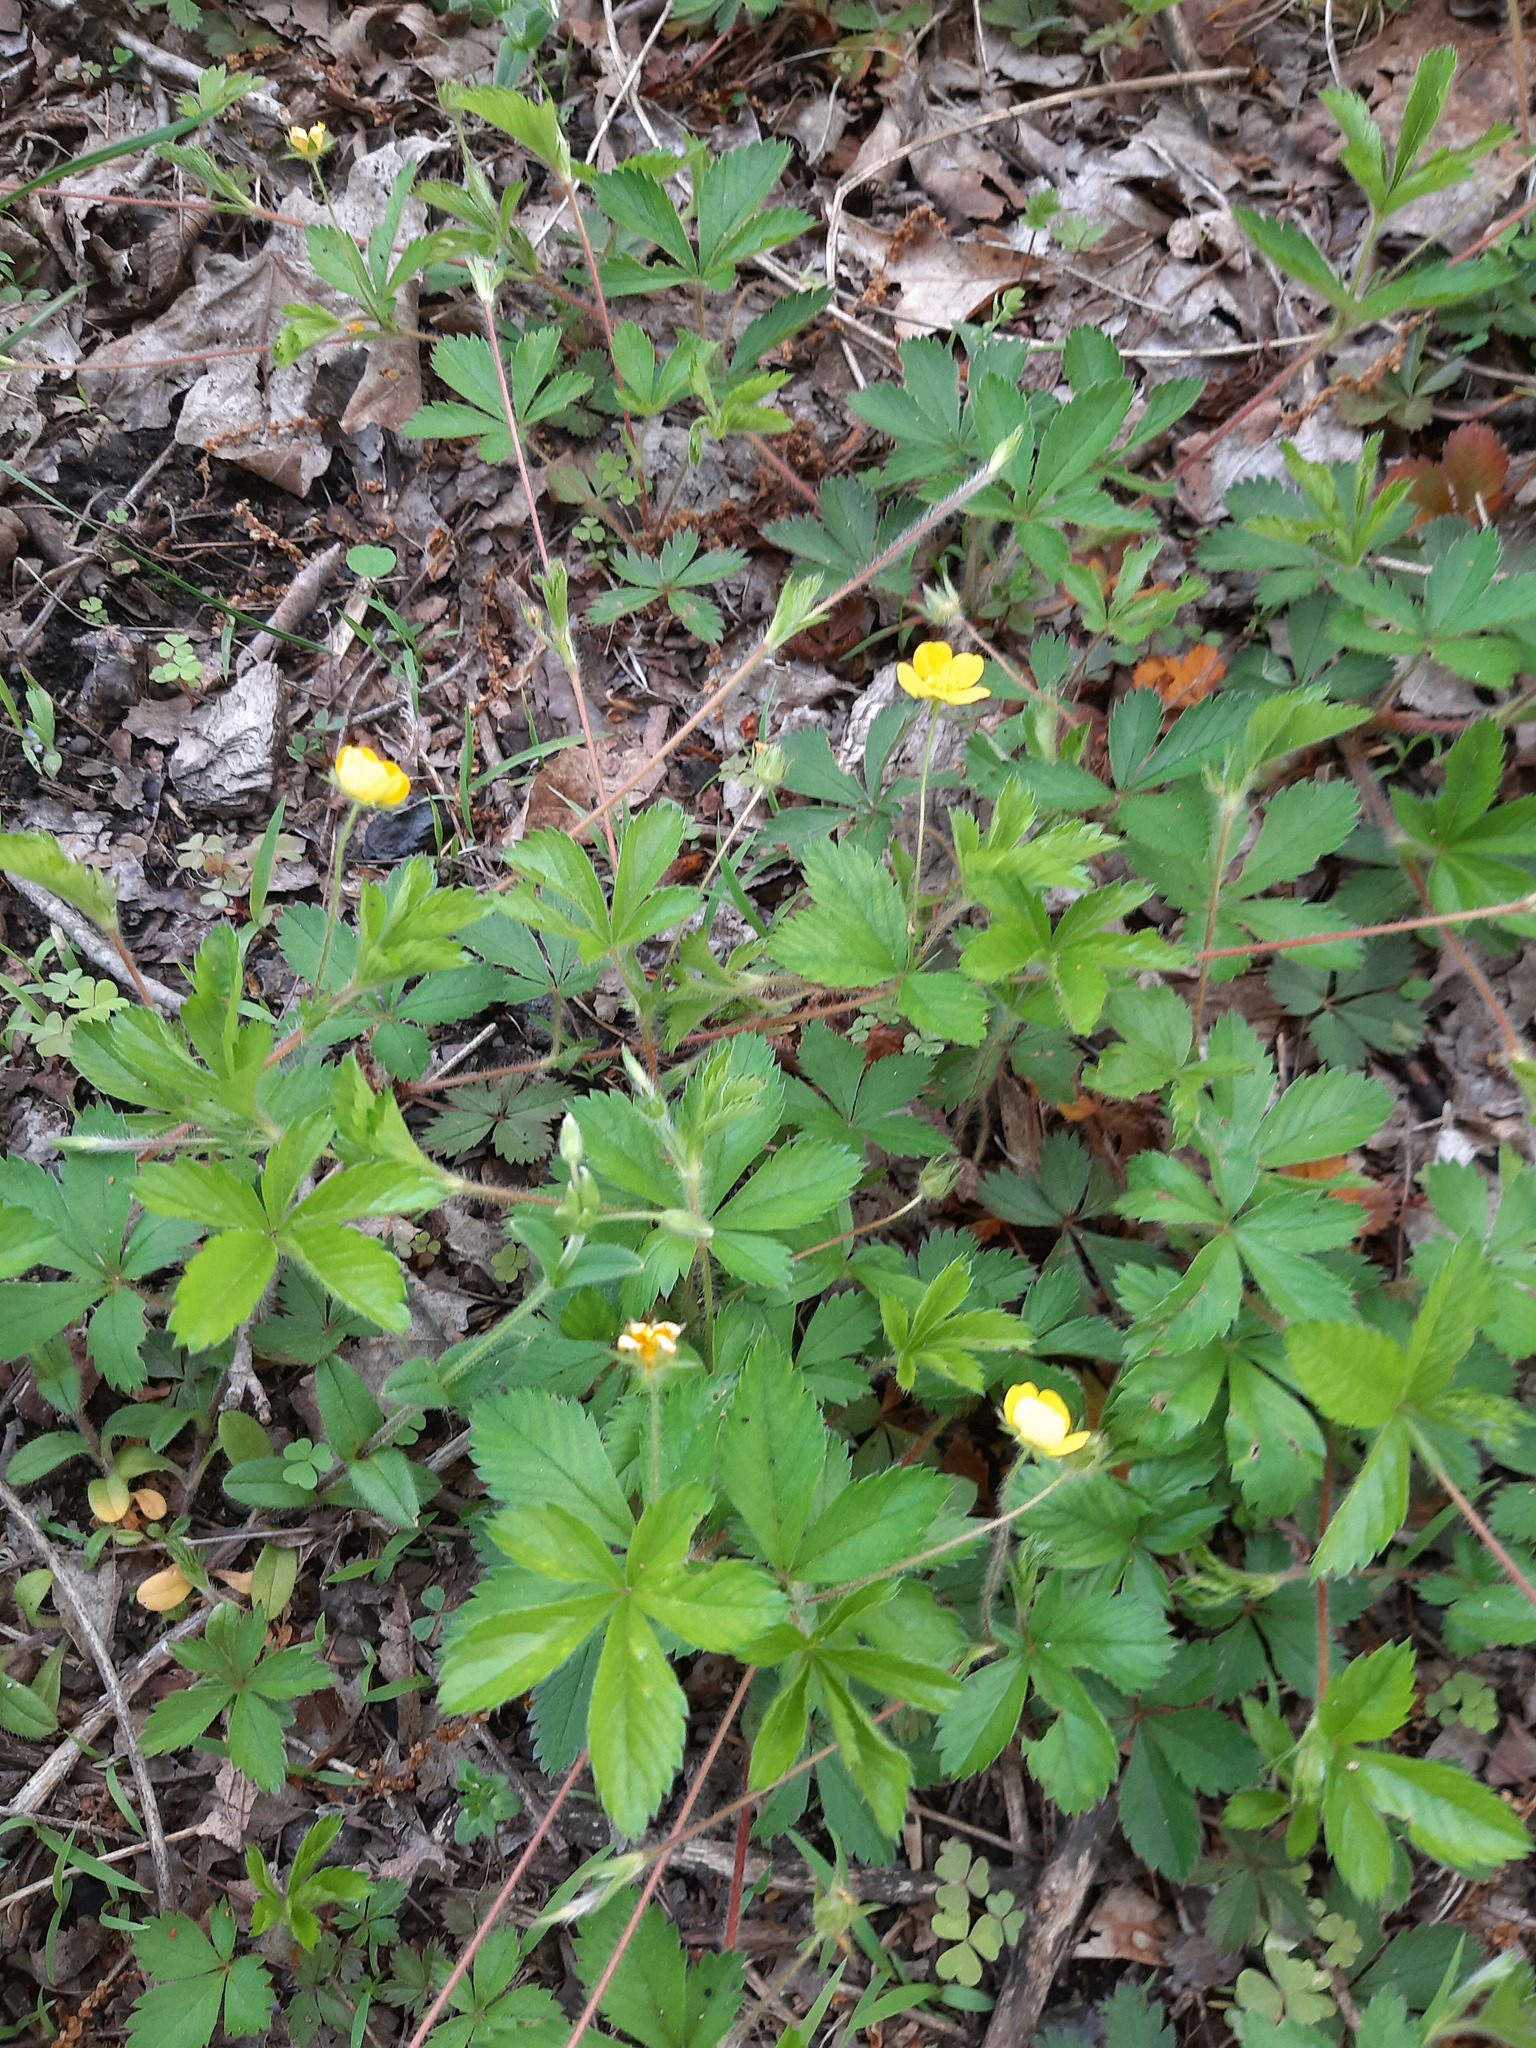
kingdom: Plantae
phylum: Tracheophyta
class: Magnoliopsida
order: Rosales
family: Rosaceae
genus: Potentilla
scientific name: Potentilla simplex
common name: Old field cinquefoil
